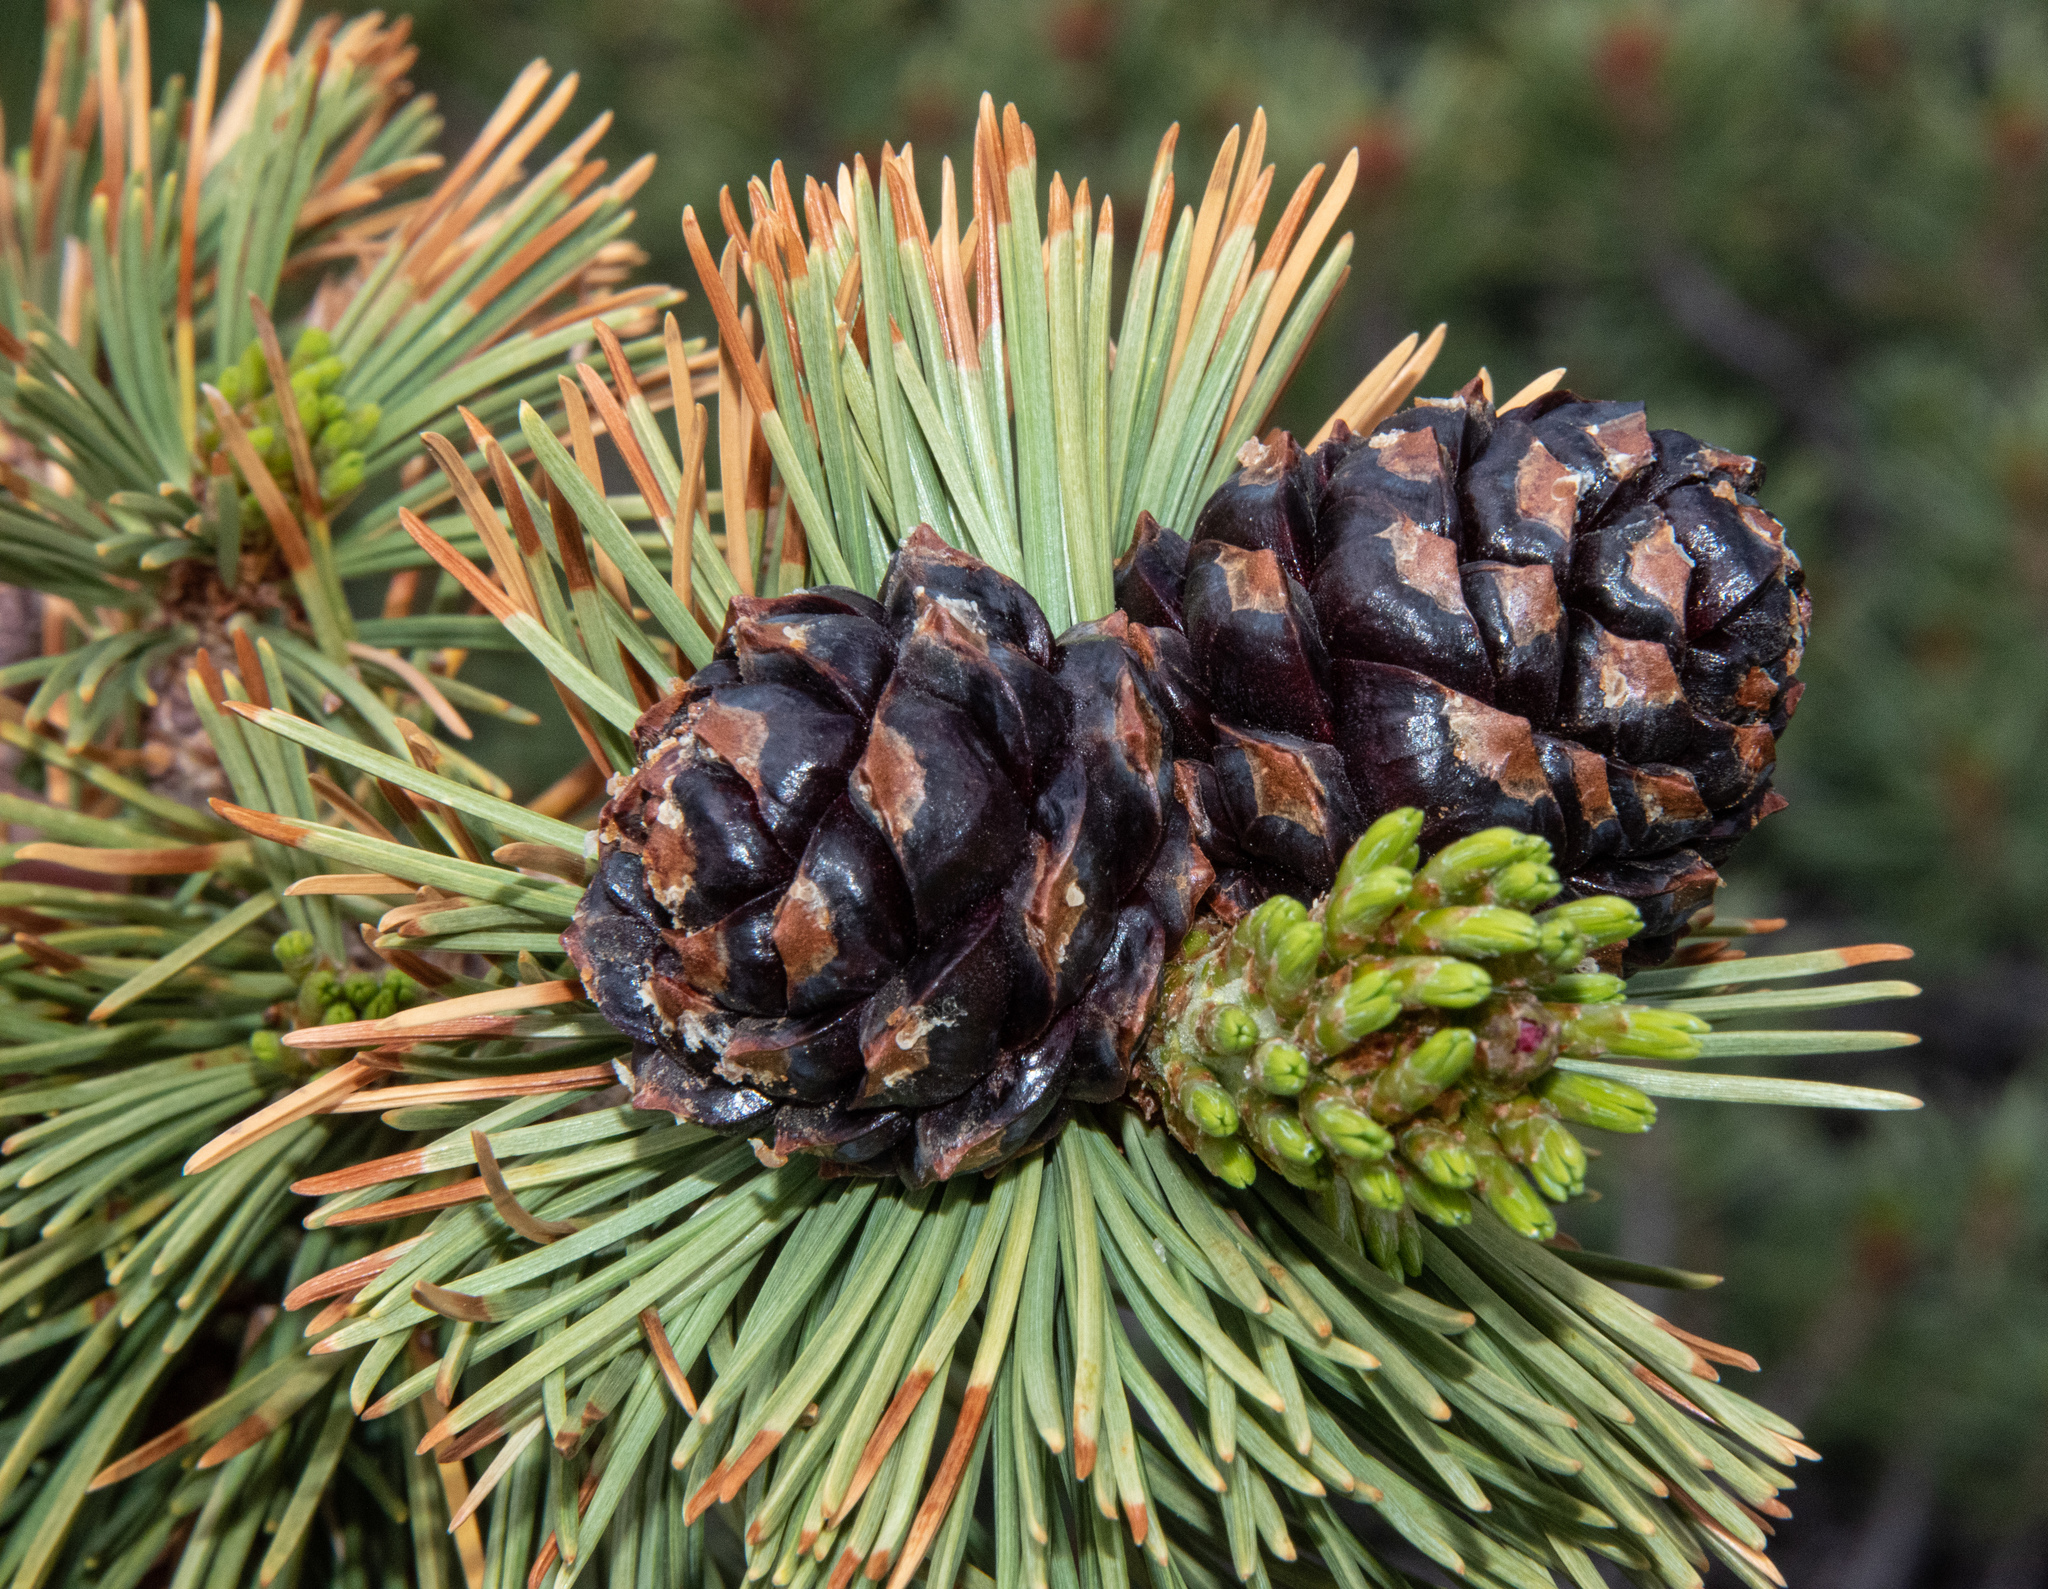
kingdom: Plantae
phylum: Tracheophyta
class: Pinopsida
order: Pinales
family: Pinaceae
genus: Pinus
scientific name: Pinus albicaulis
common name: Whitebark pine
